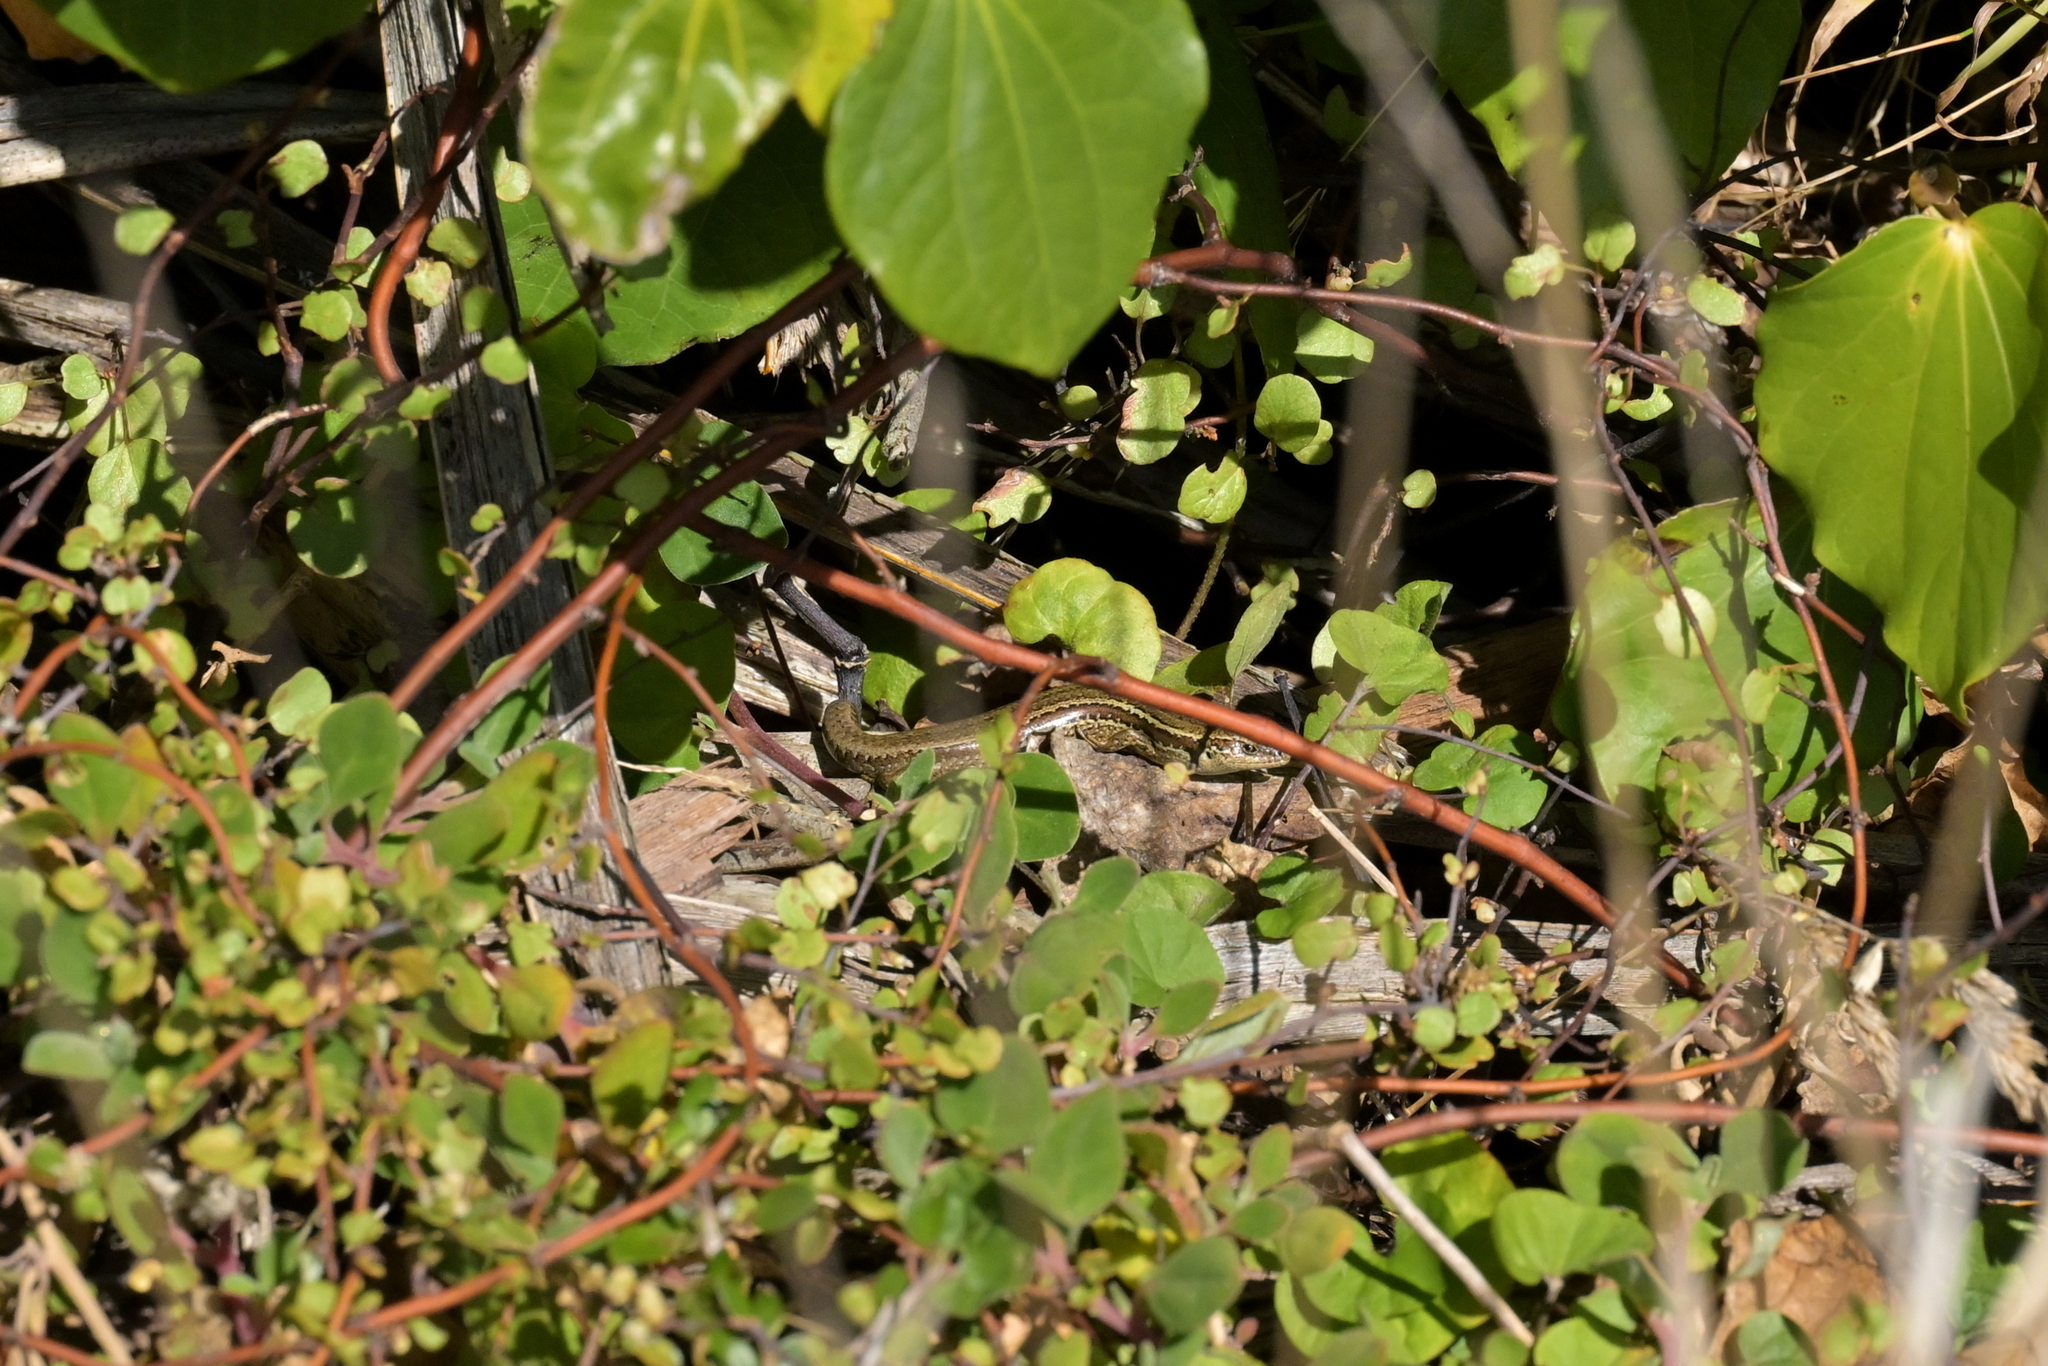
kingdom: Animalia
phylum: Chordata
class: Squamata
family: Scincidae
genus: Oligosoma
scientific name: Oligosoma polychroma
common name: Common new zealand skink
